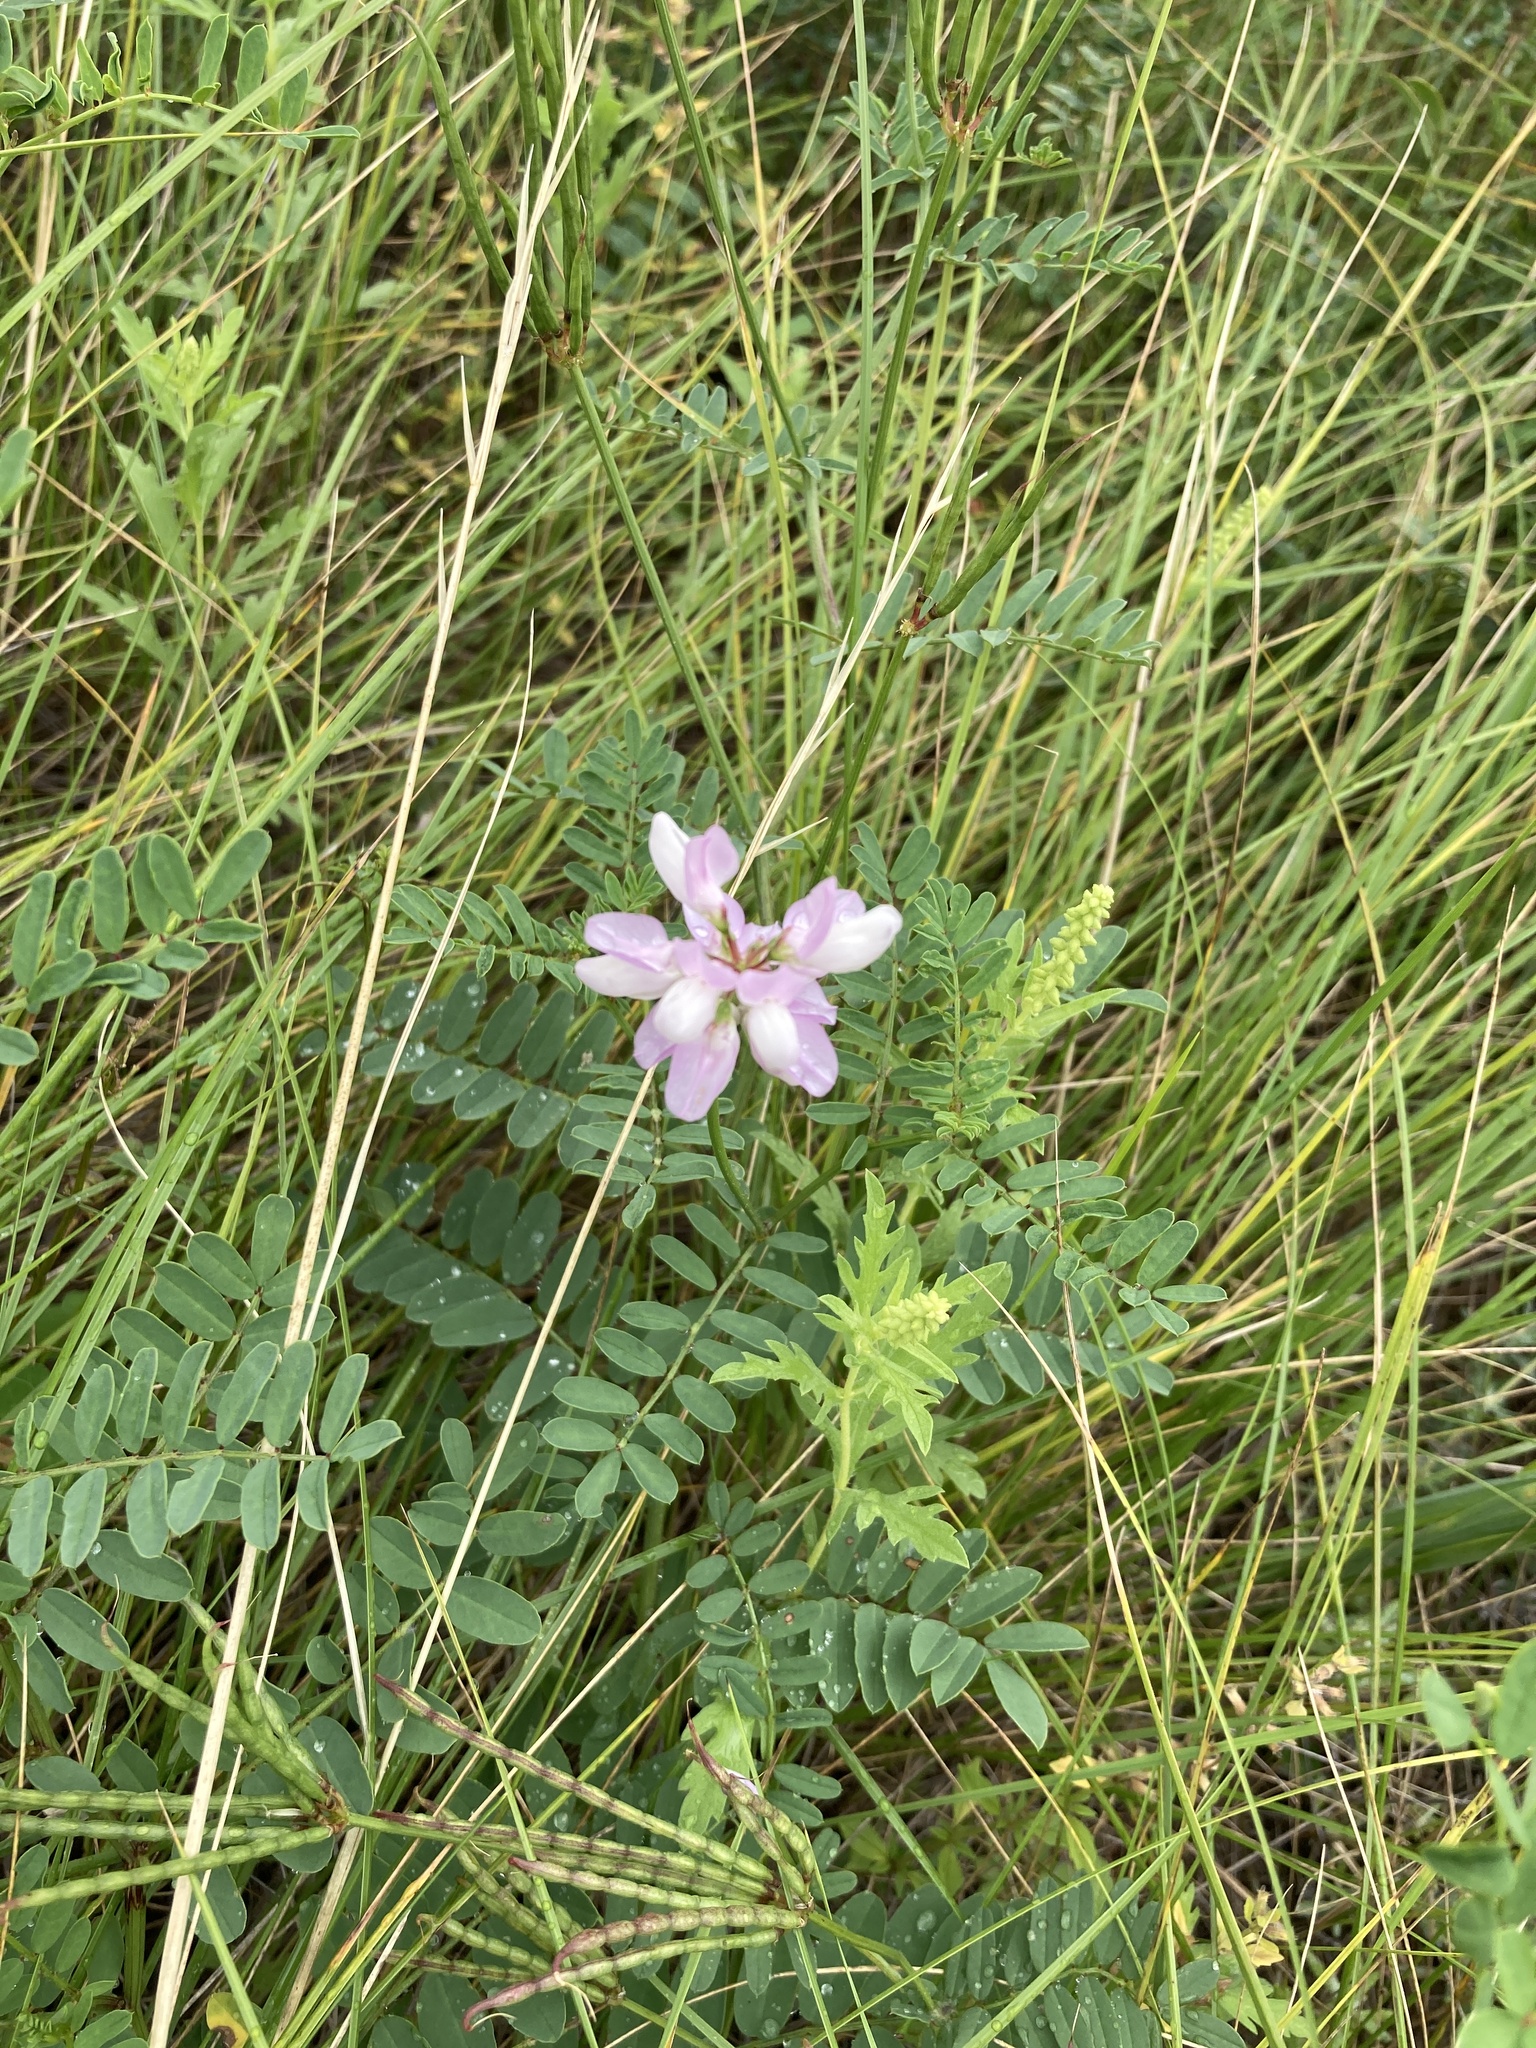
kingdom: Plantae
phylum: Tracheophyta
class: Magnoliopsida
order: Fabales
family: Fabaceae
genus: Coronilla
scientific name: Coronilla varia
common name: Crownvetch
